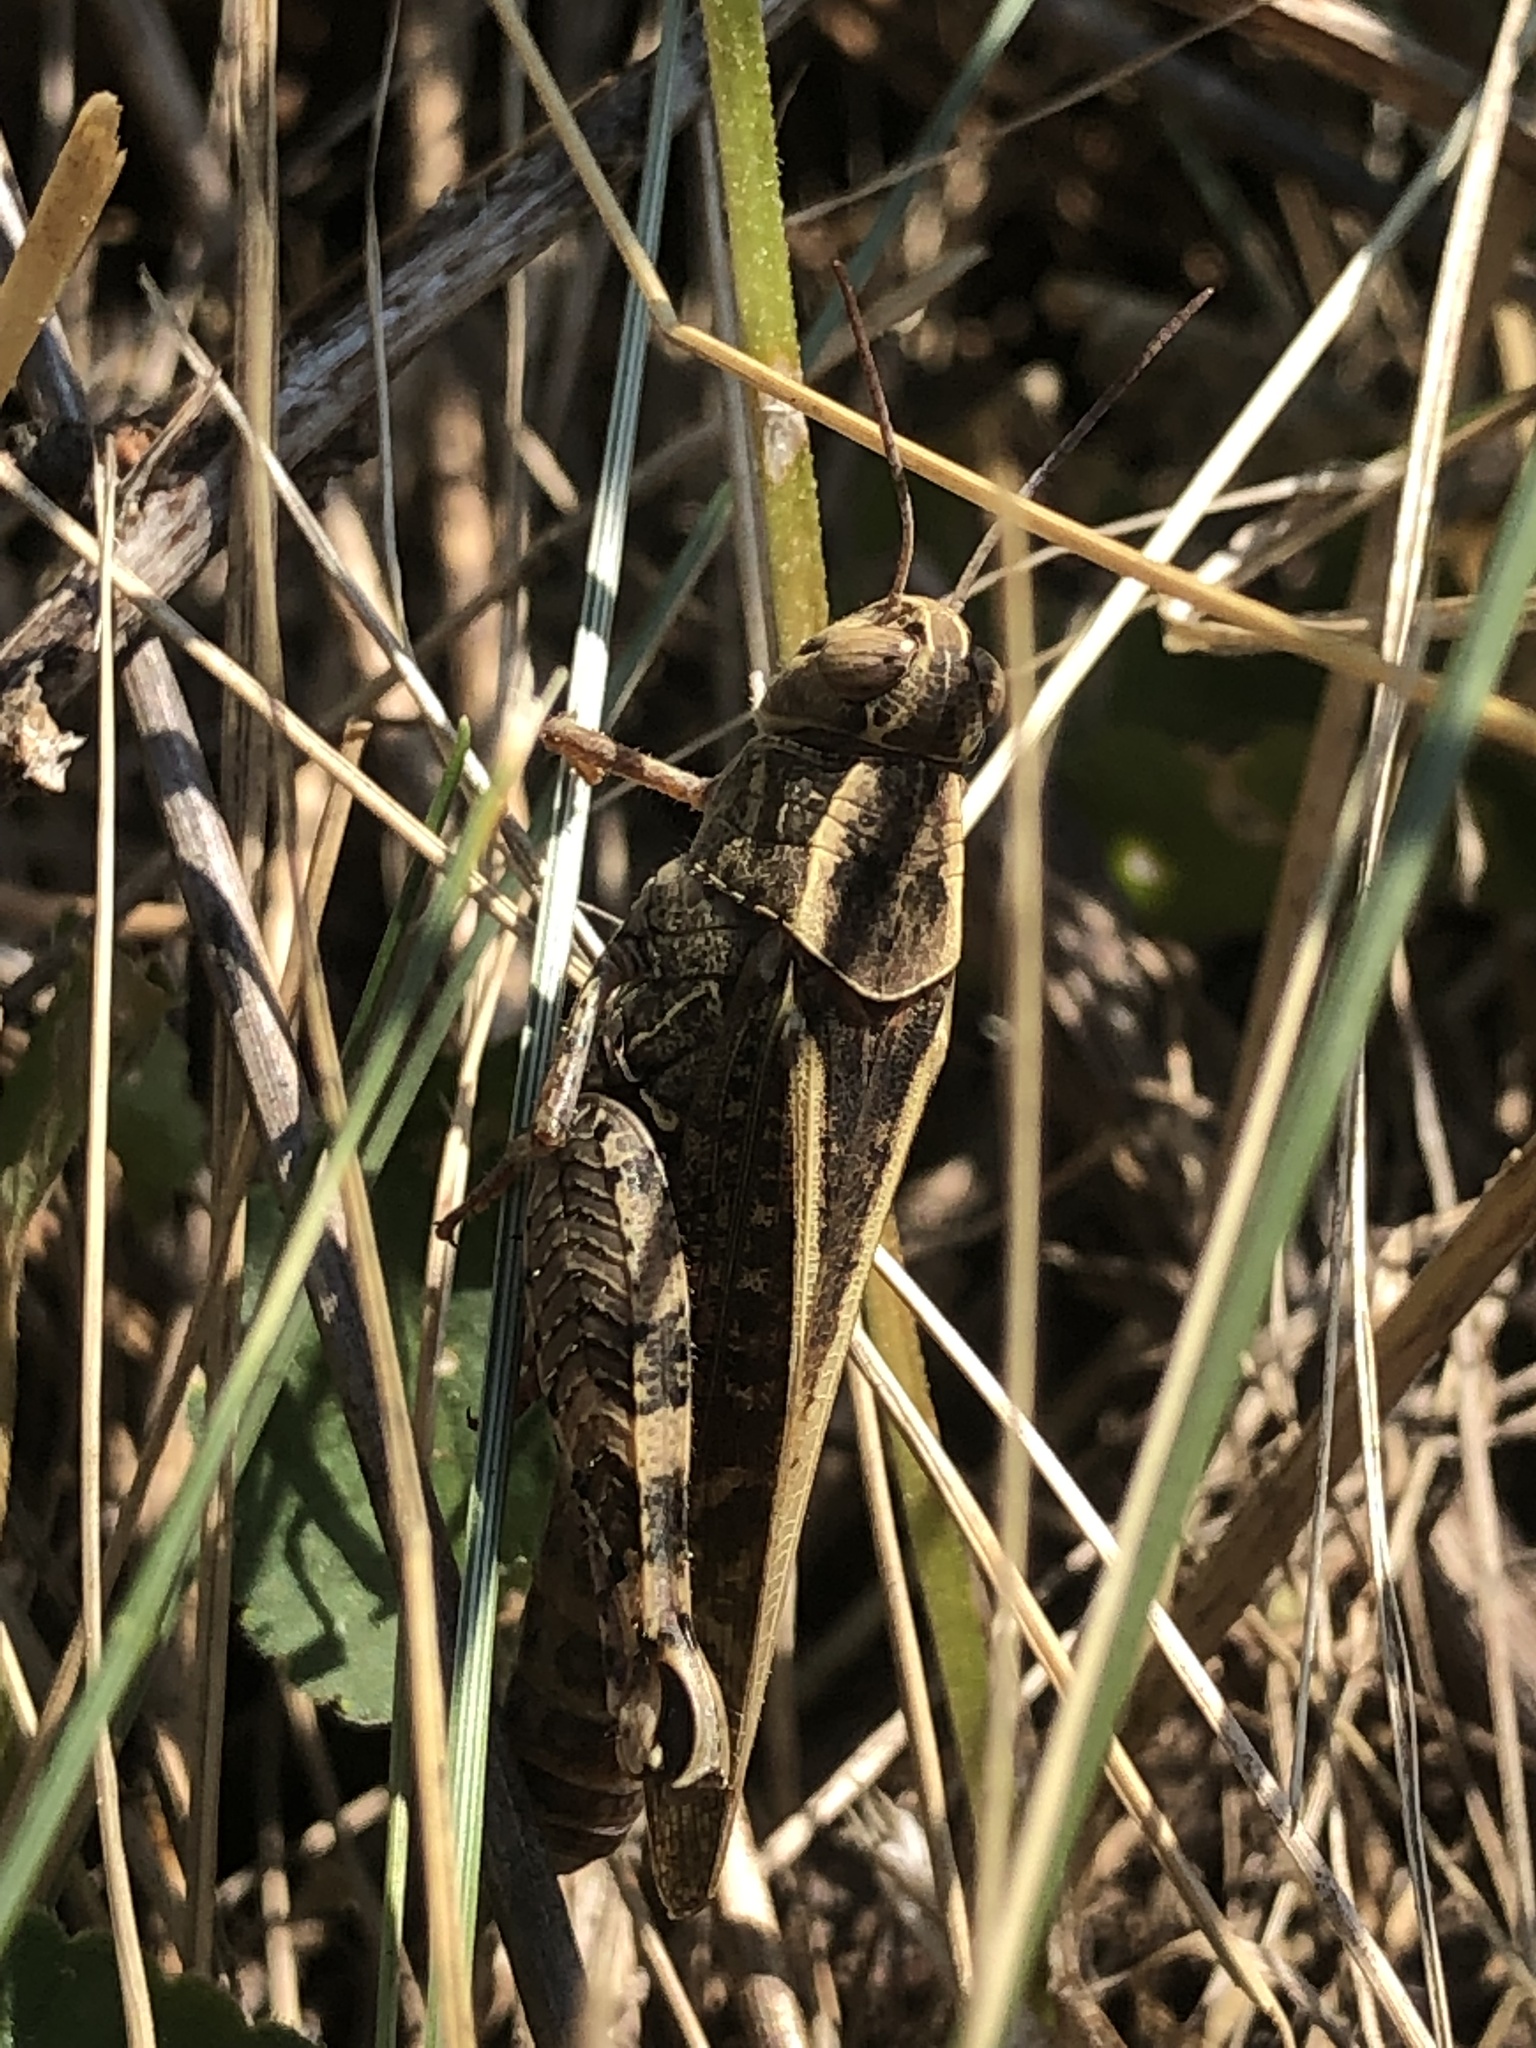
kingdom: Animalia
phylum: Arthropoda
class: Insecta
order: Orthoptera
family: Acrididae
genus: Calliptamus
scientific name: Calliptamus italicus
